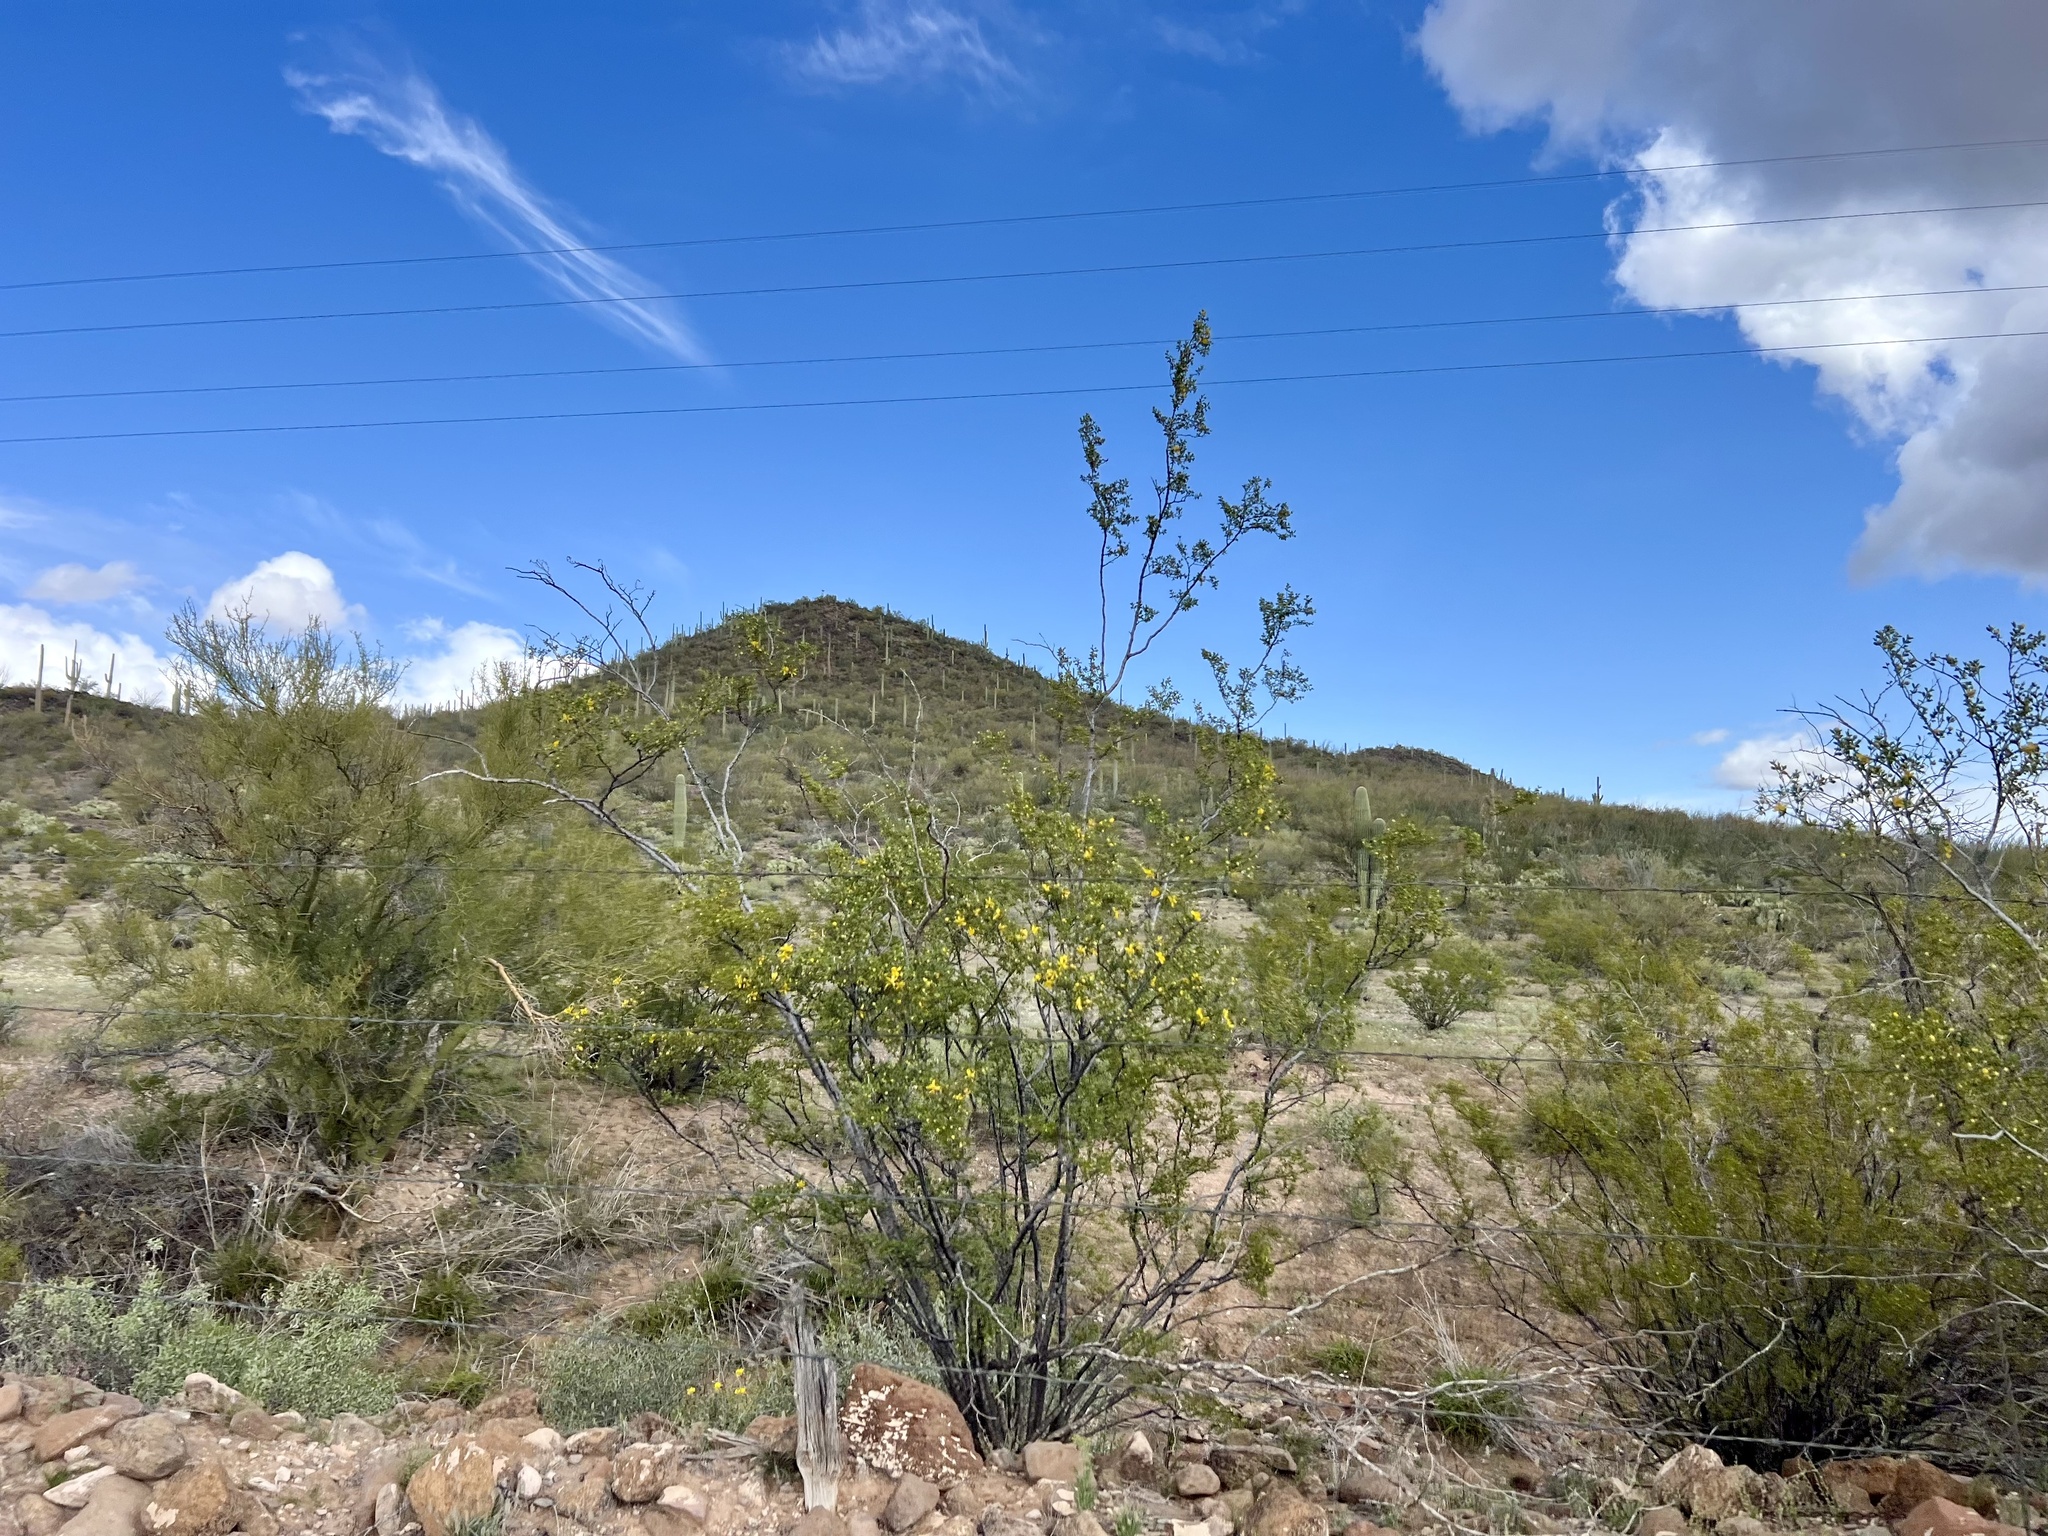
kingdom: Plantae
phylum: Tracheophyta
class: Magnoliopsida
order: Zygophyllales
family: Zygophyllaceae
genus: Larrea
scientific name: Larrea tridentata
